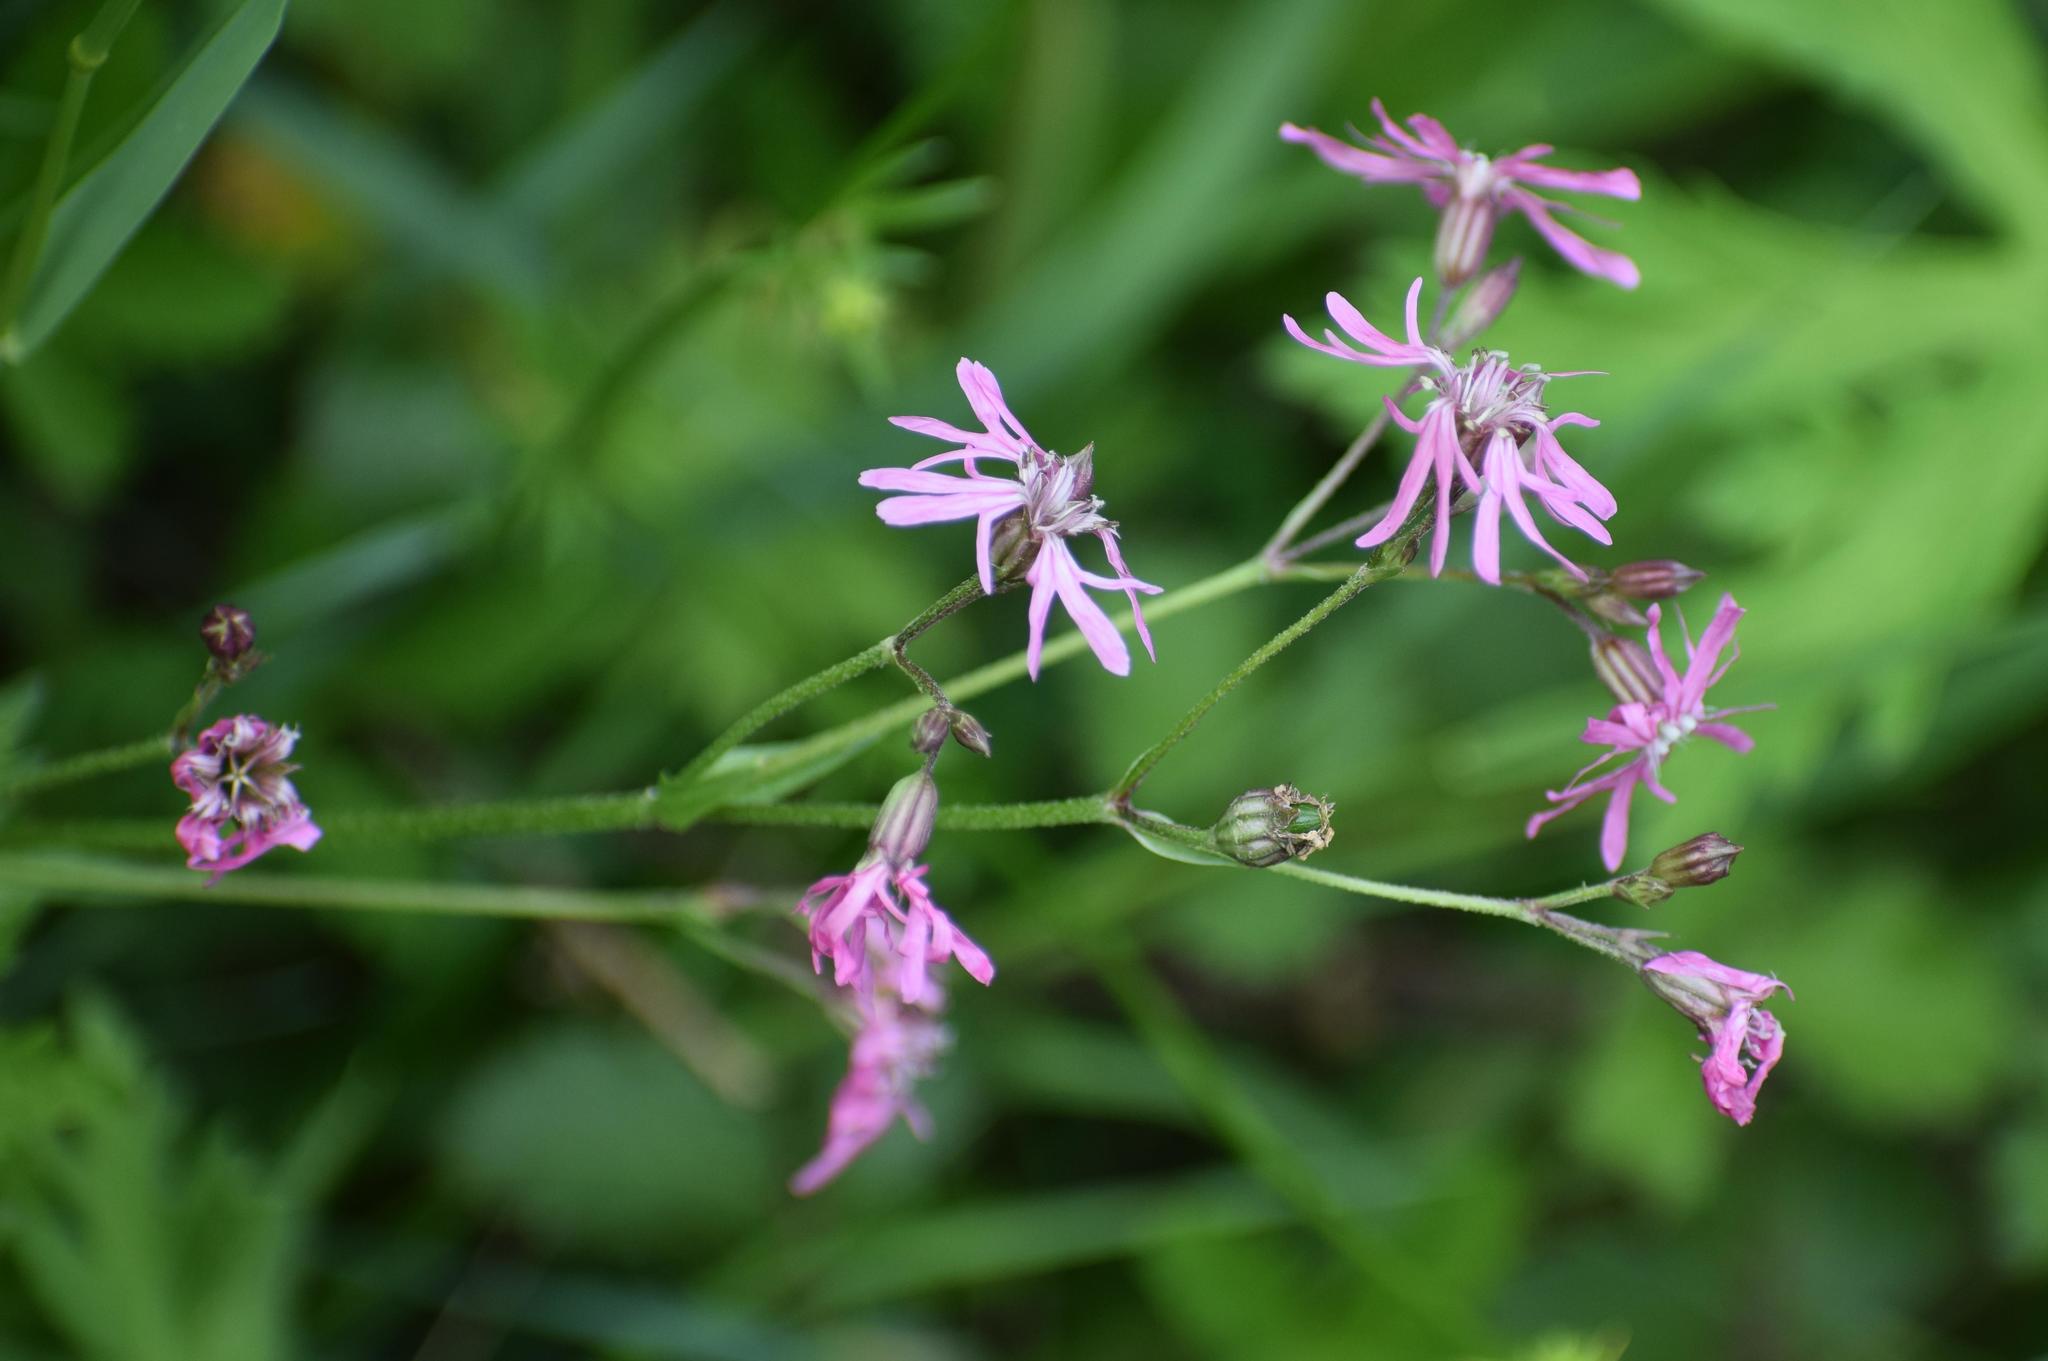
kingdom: Plantae
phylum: Tracheophyta
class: Magnoliopsida
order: Caryophyllales
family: Caryophyllaceae
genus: Silene
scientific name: Silene flos-cuculi
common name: Ragged-robin
